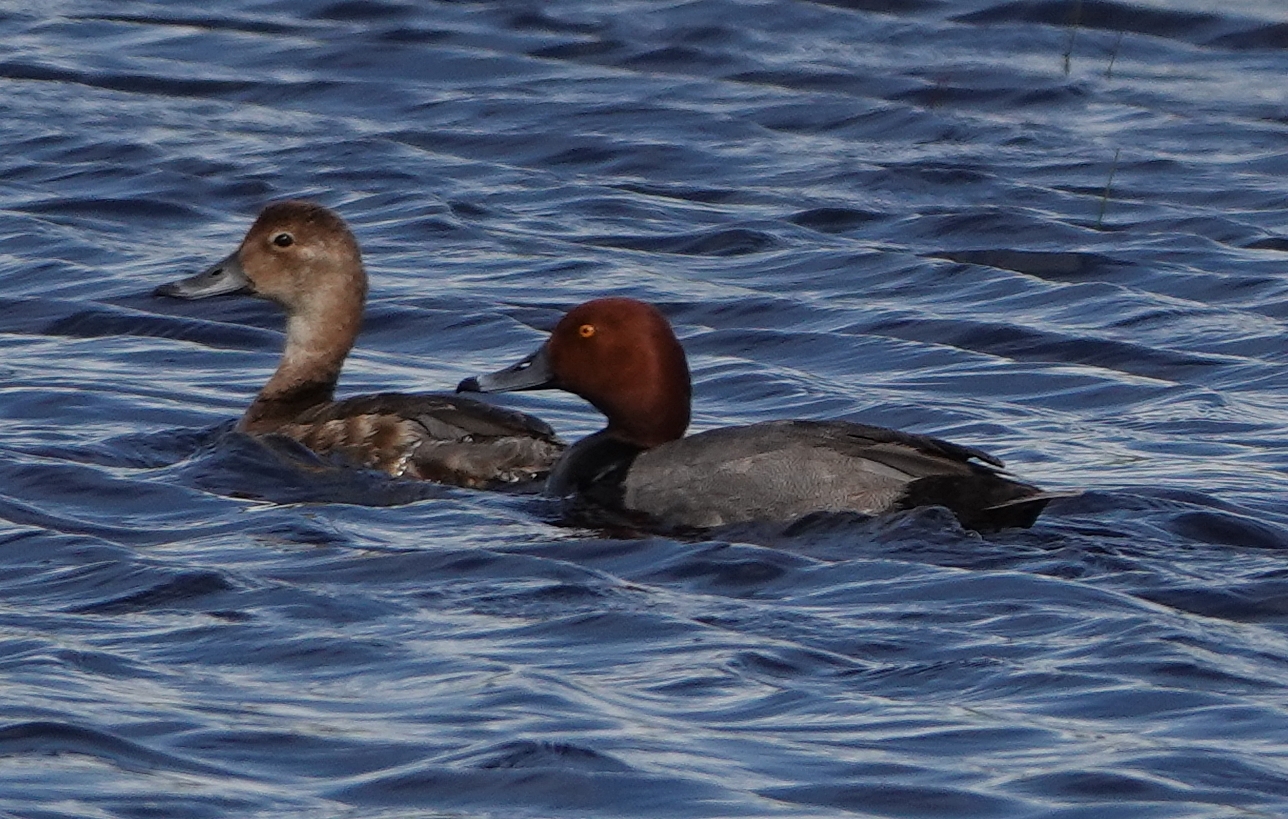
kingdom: Animalia
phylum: Chordata
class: Aves
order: Anseriformes
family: Anatidae
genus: Aythya
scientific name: Aythya americana
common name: Redhead
